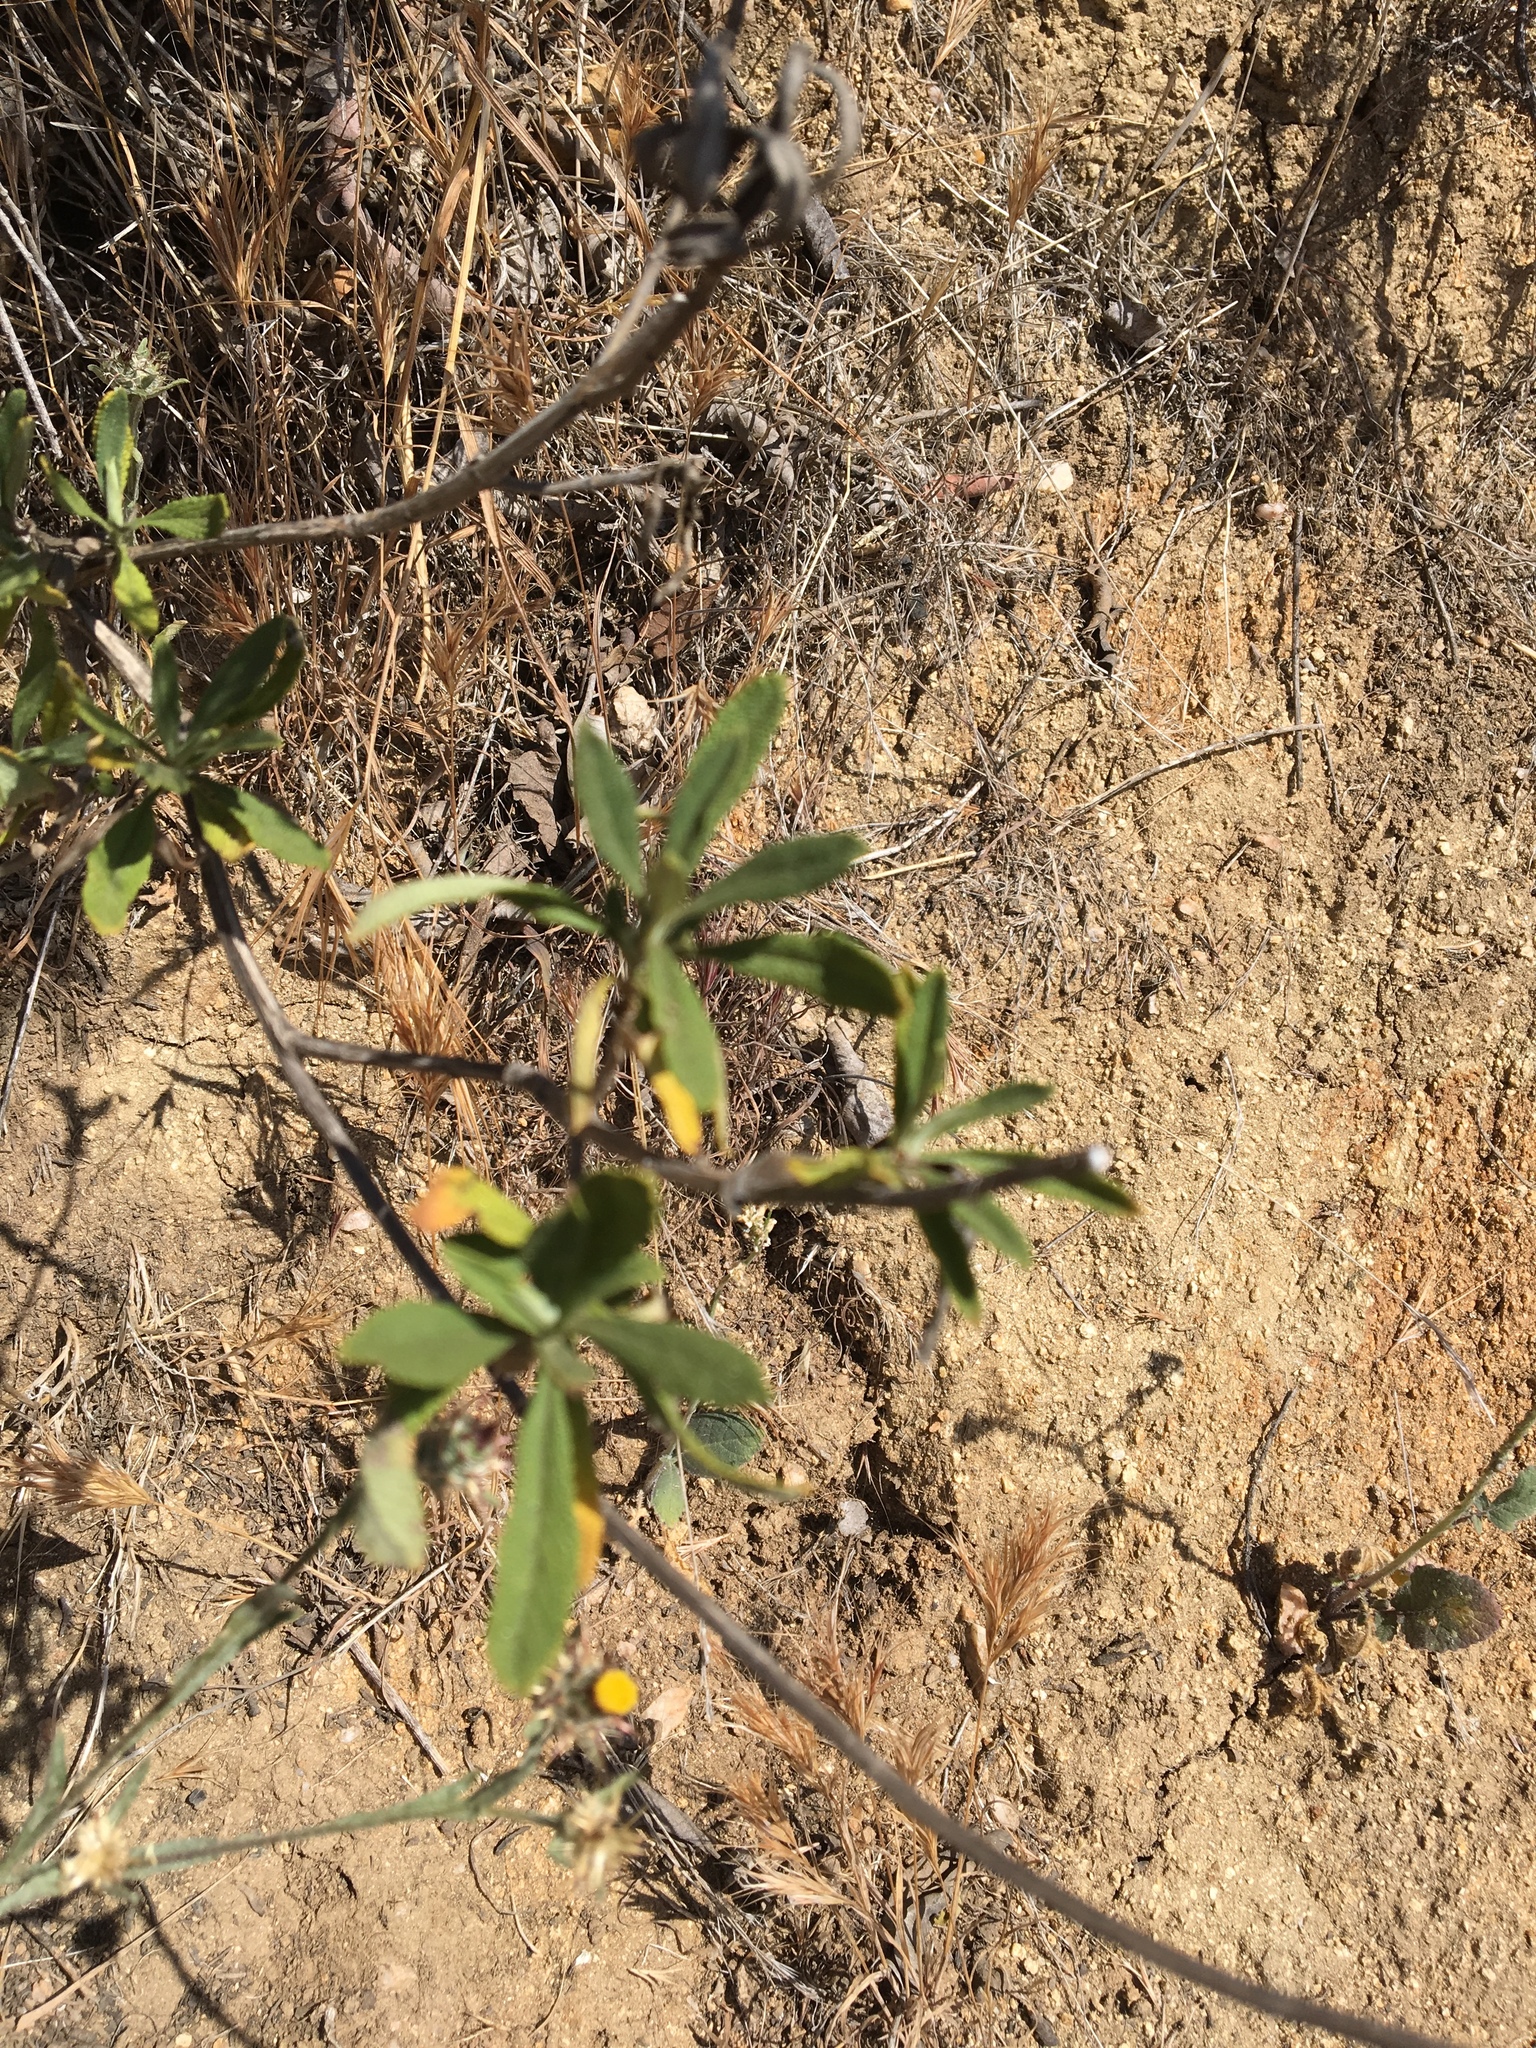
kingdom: Plantae
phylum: Tracheophyta
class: Magnoliopsida
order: Lamiales
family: Lamiaceae
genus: Salvia
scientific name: Salvia mellifera
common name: Black sage
